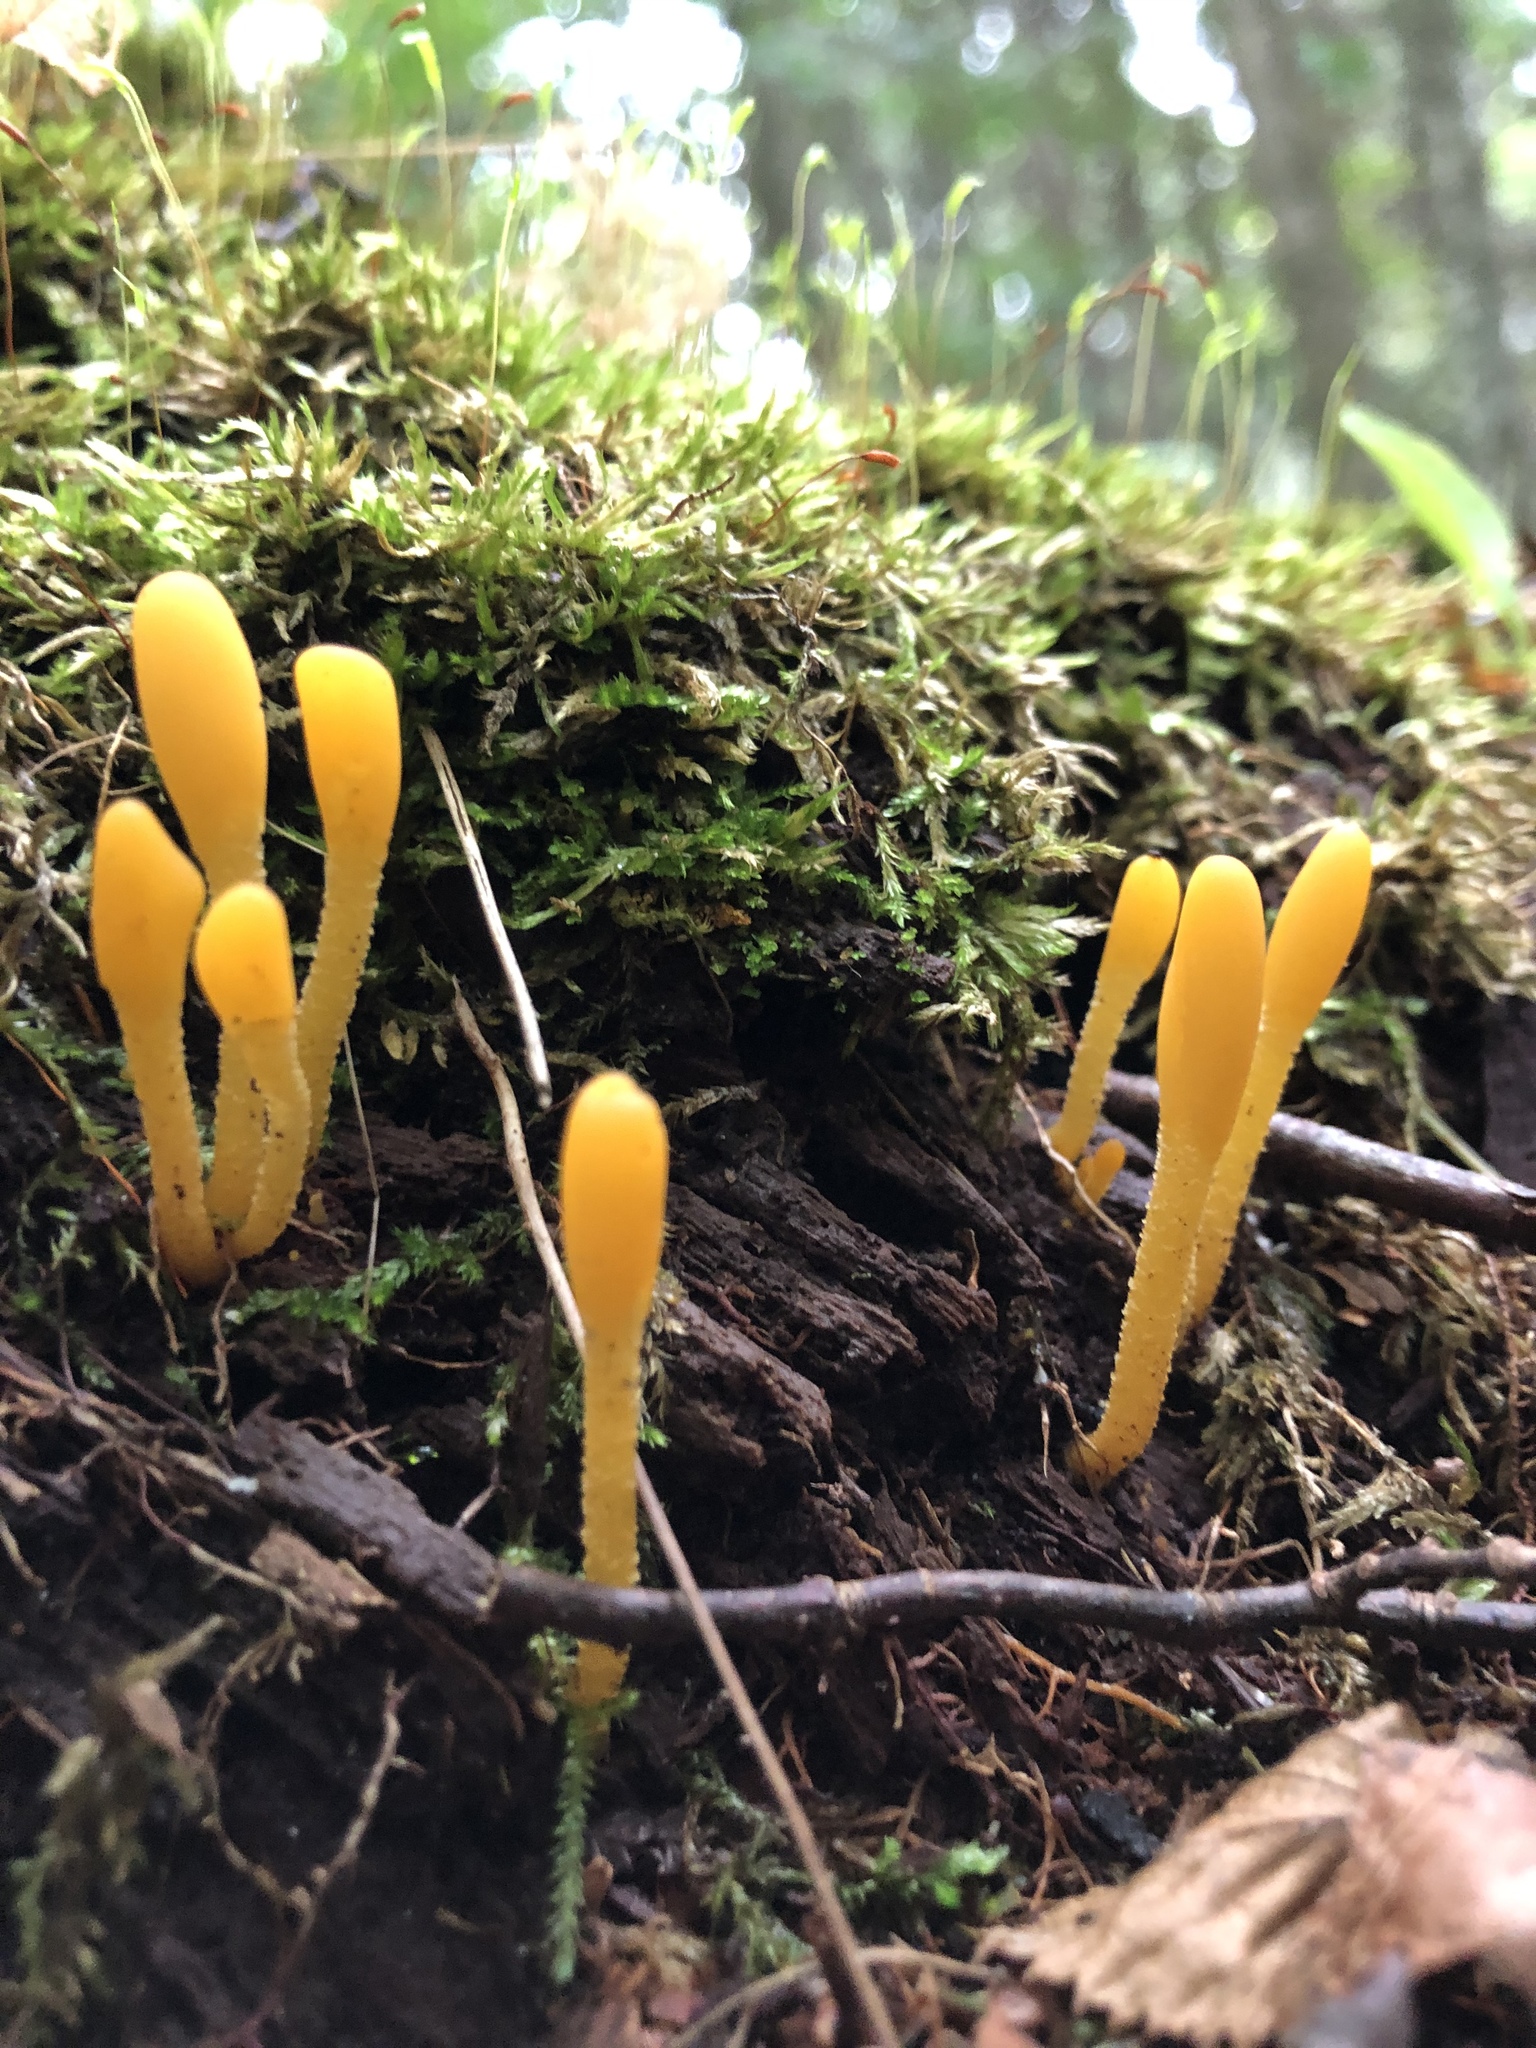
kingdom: Fungi
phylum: Ascomycota
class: Leotiomycetes
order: Leotiales
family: Leotiaceae
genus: Microglossum
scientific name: Microglossum rufum
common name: Orange earthtongue
